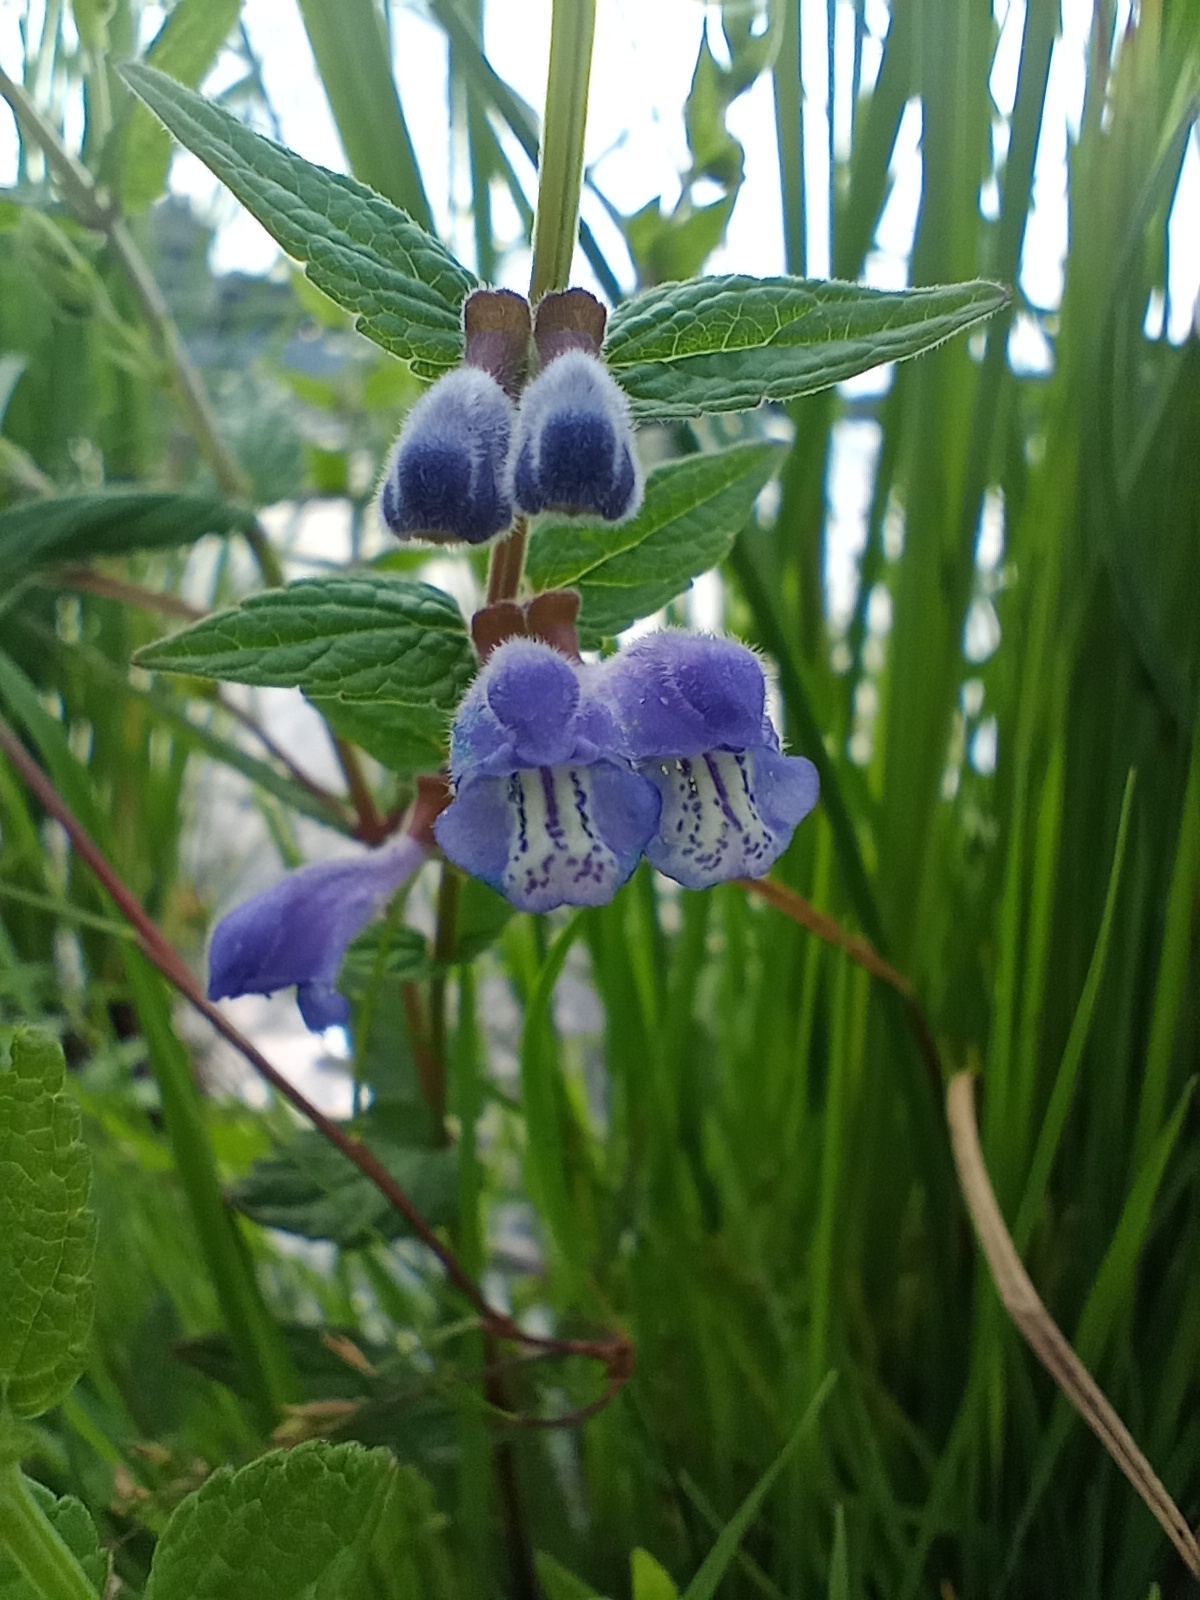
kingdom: Plantae
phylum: Tracheophyta
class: Magnoliopsida
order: Lamiales
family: Lamiaceae
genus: Scutellaria
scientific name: Scutellaria galericulata
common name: Skullcap
